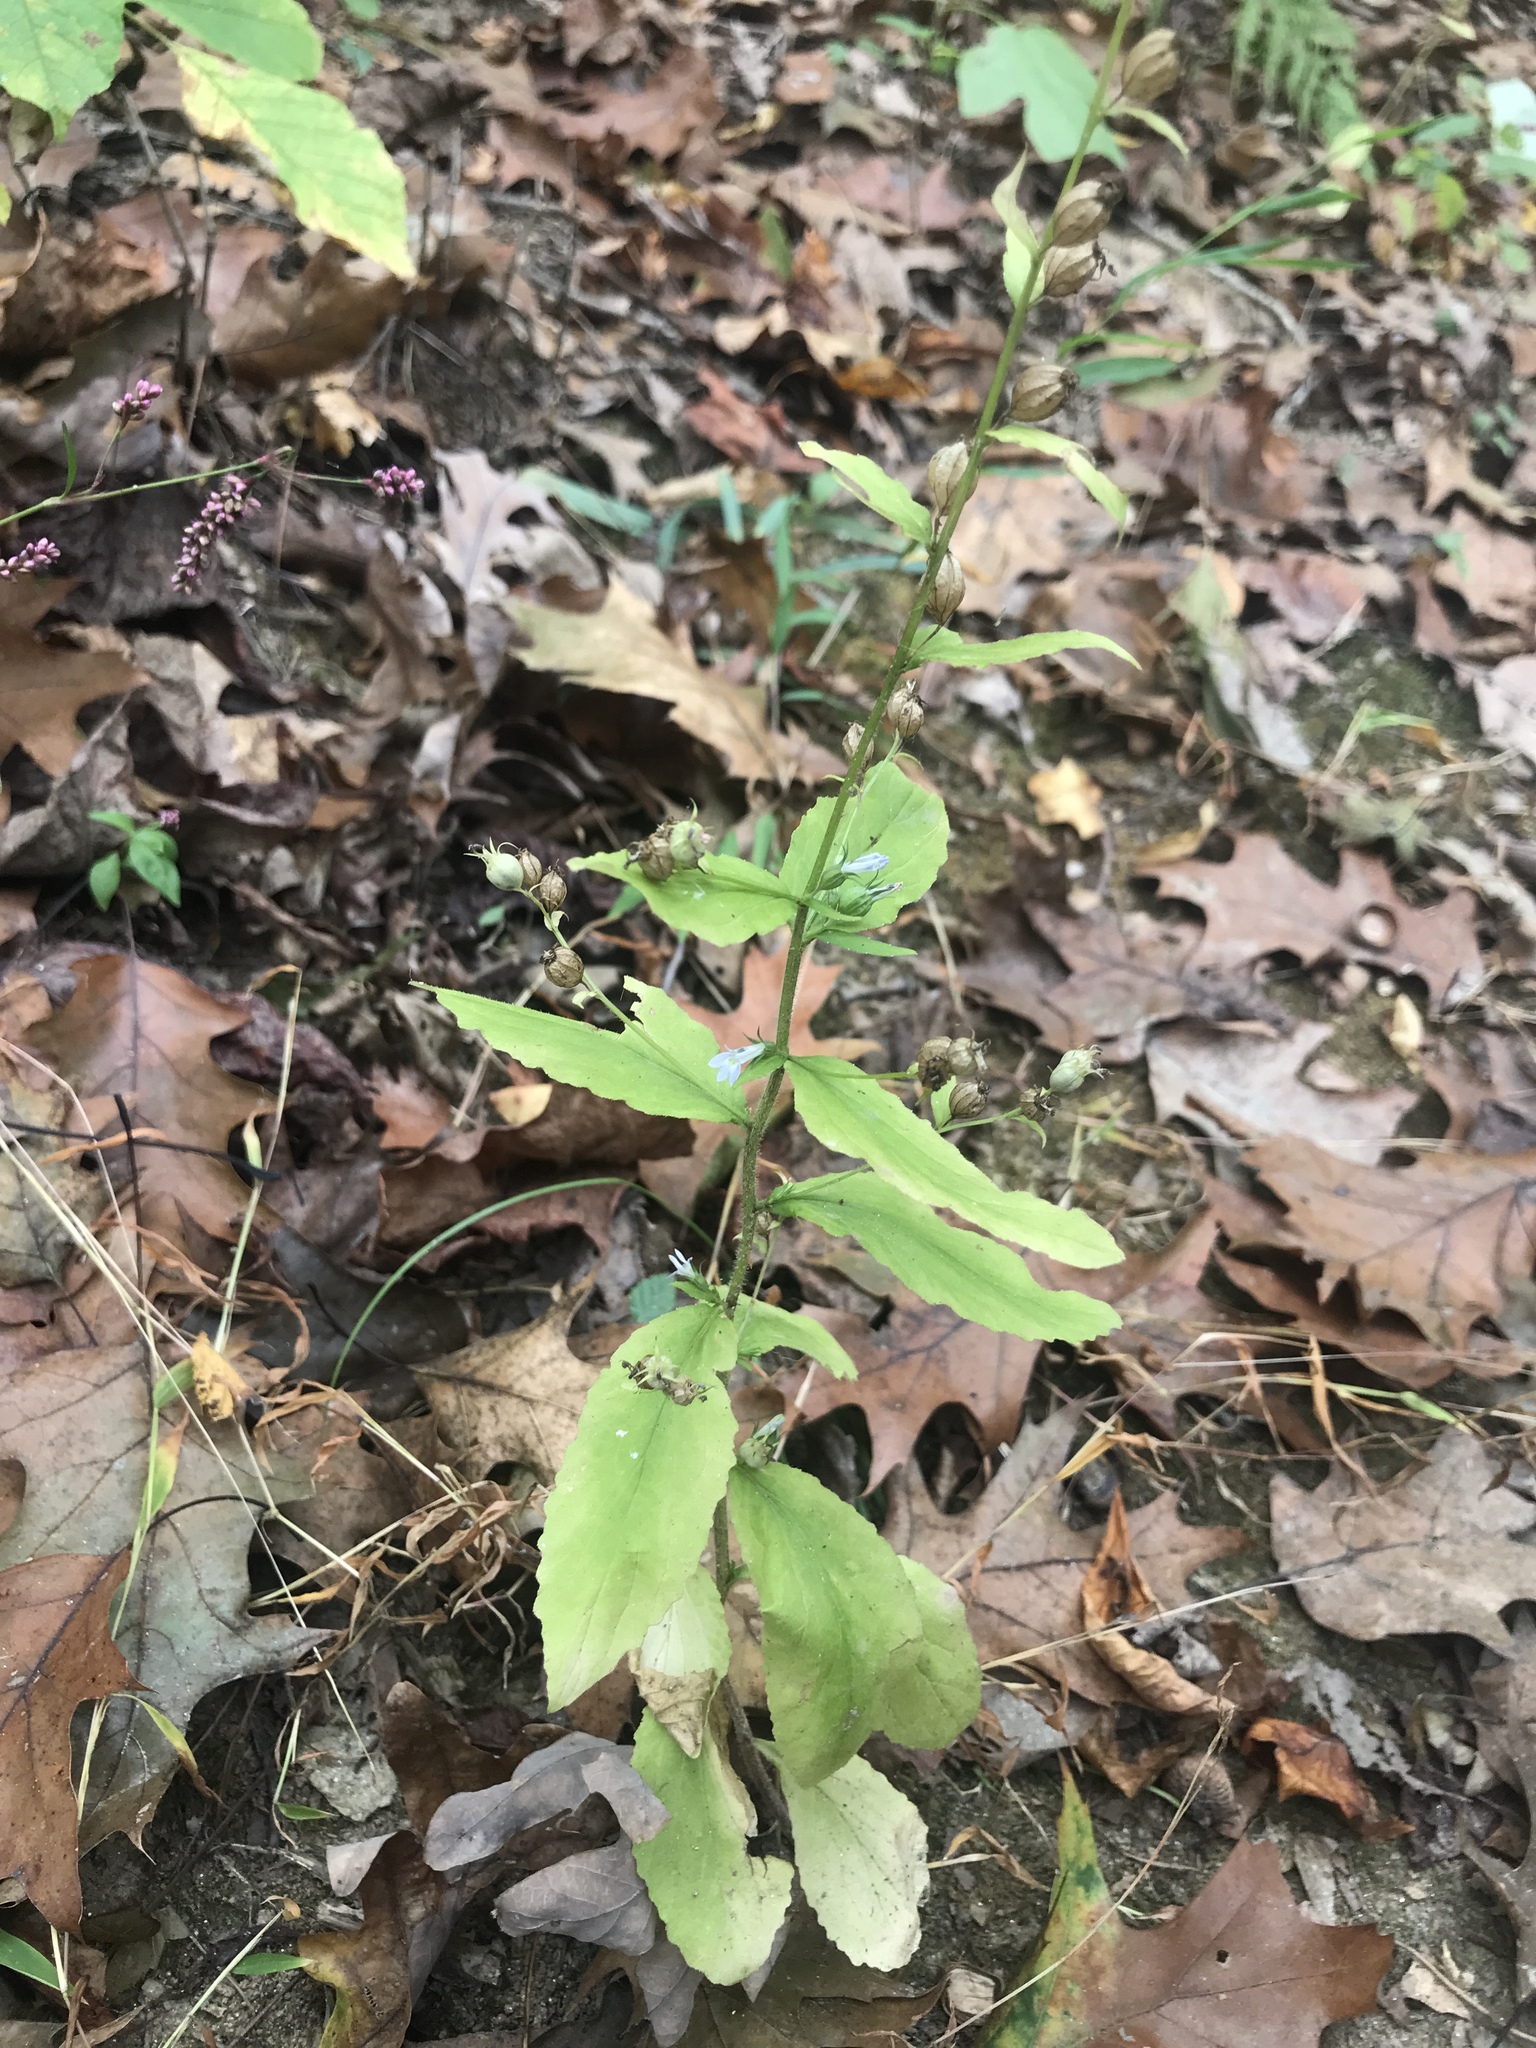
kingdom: Plantae
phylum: Tracheophyta
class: Magnoliopsida
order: Asterales
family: Campanulaceae
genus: Lobelia
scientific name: Lobelia inflata
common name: Indian tobacco
